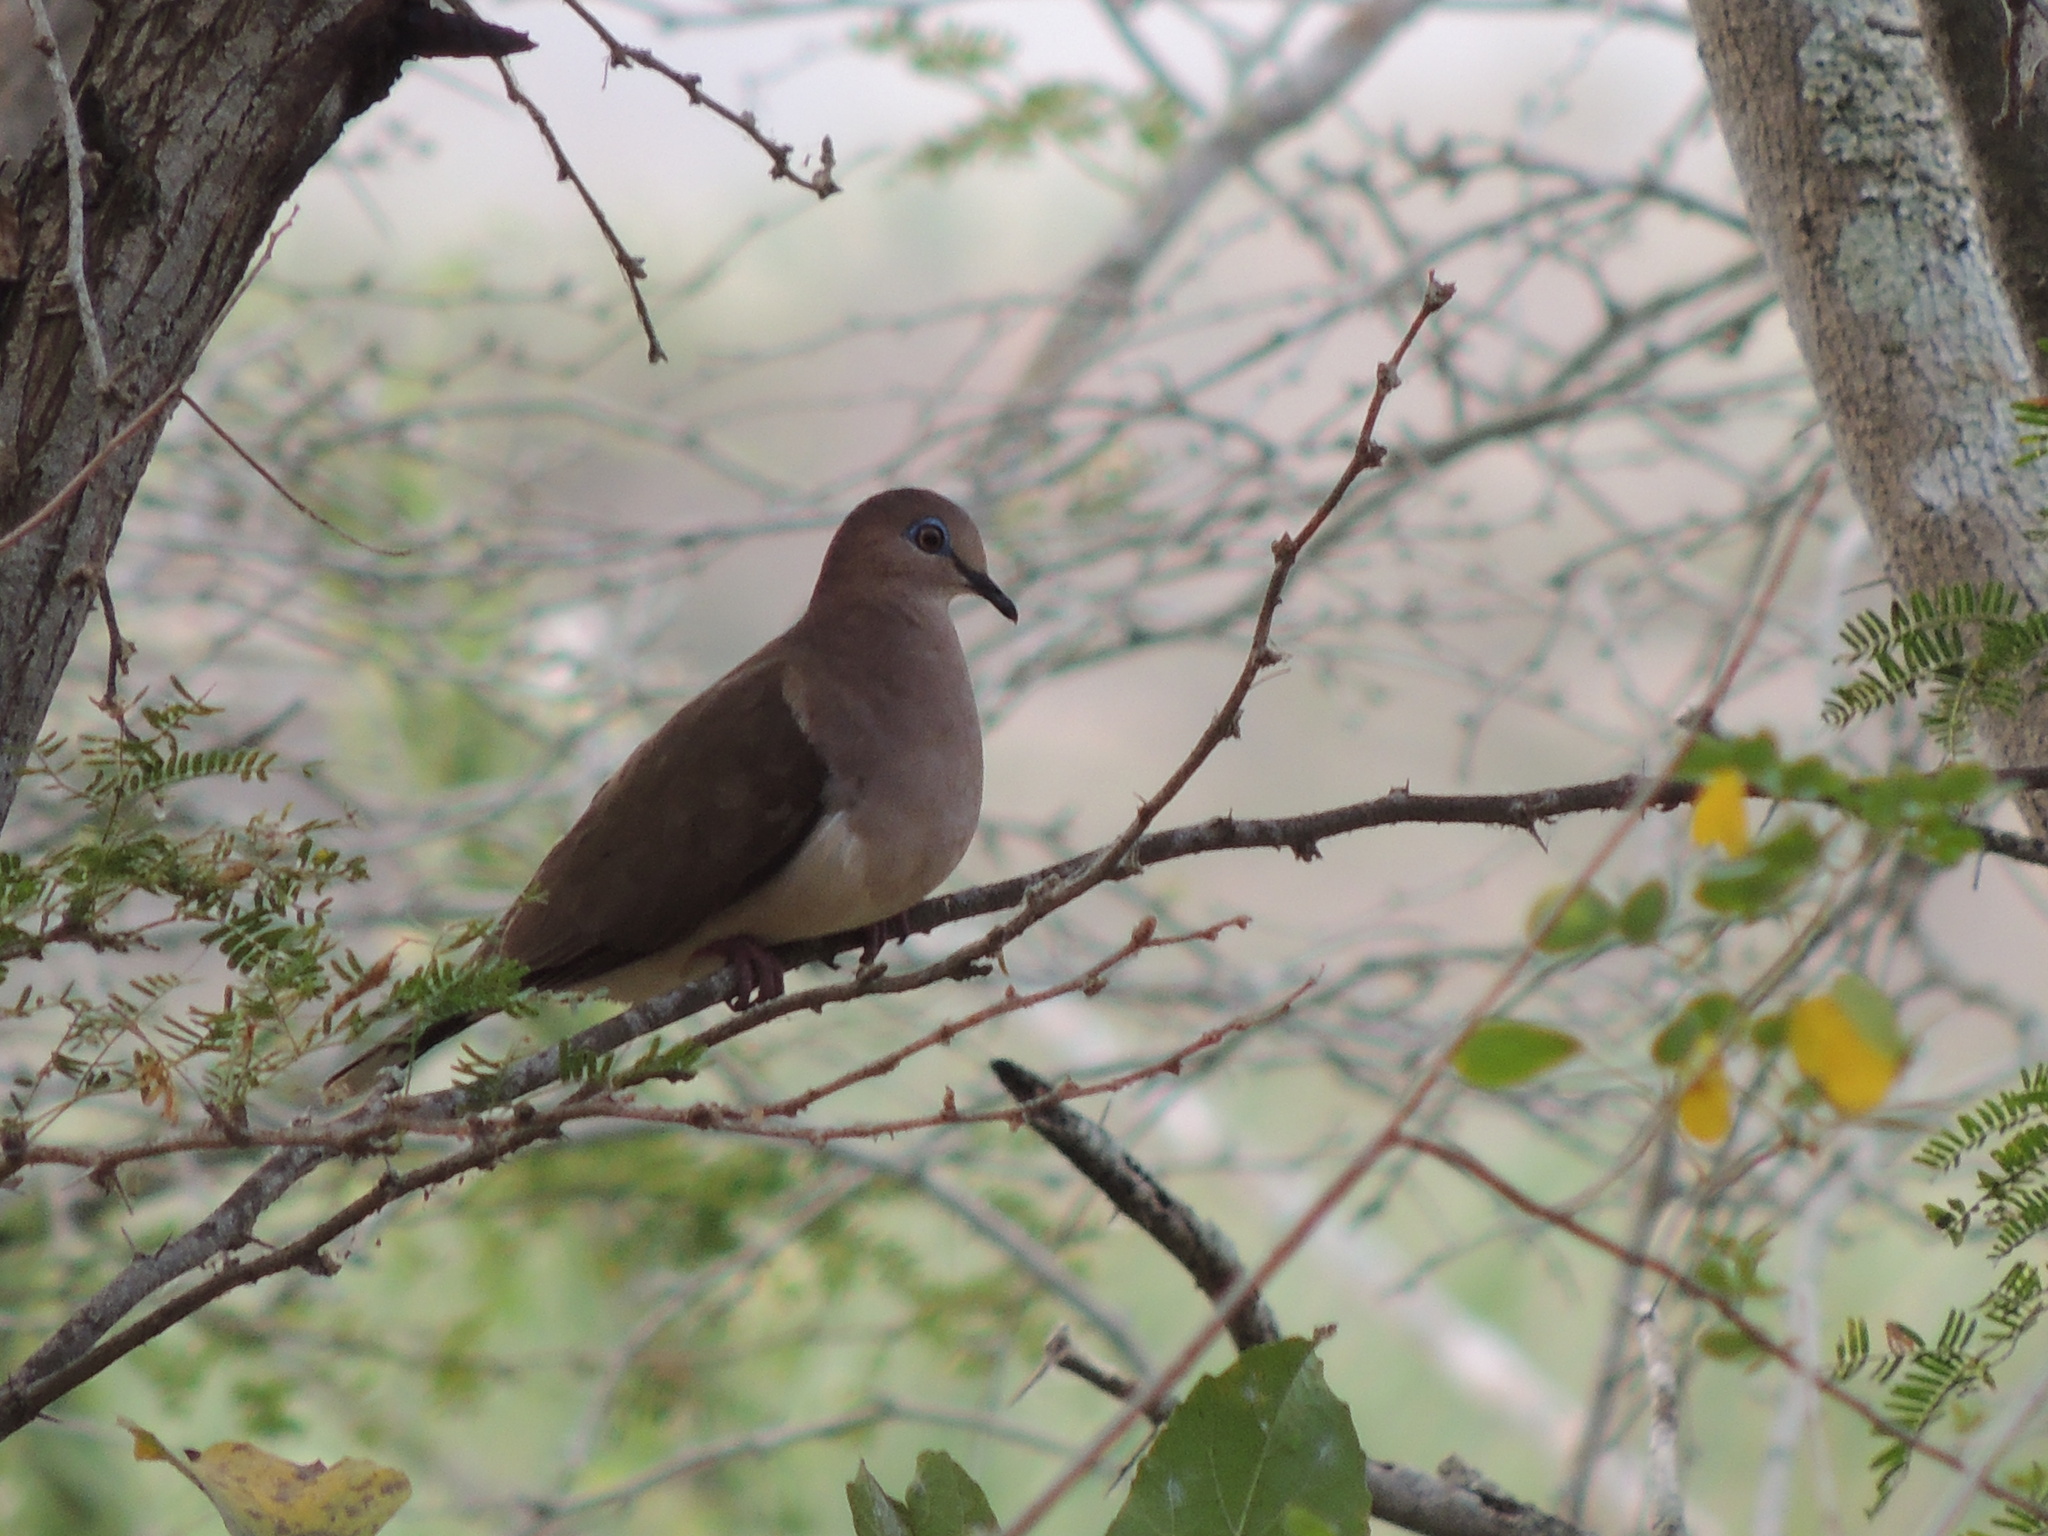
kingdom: Animalia
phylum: Chordata
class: Aves
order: Columbiformes
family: Columbidae
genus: Leptotila
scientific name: Leptotila verreauxi
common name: White-tipped dove
